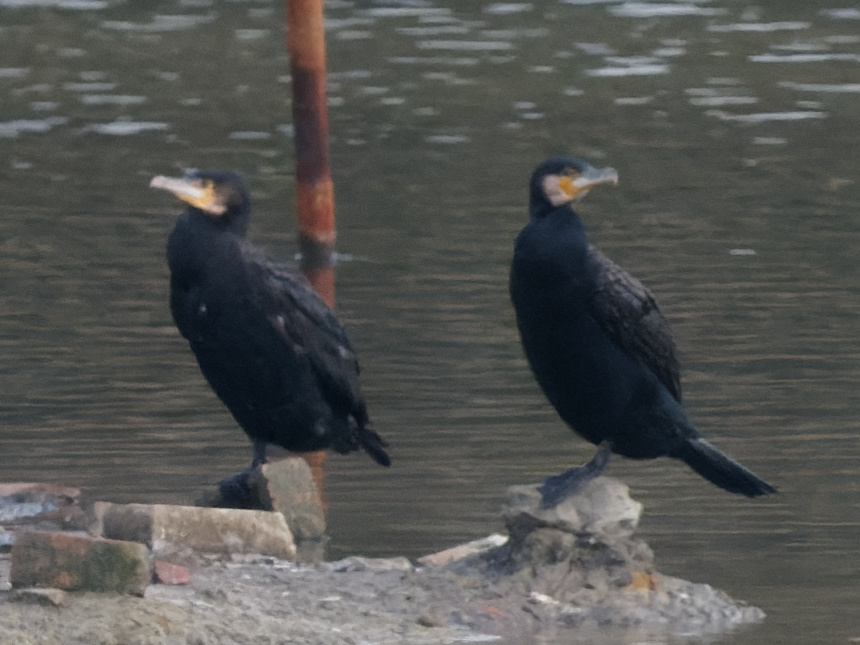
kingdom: Animalia
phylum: Chordata
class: Aves
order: Suliformes
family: Phalacrocoracidae
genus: Phalacrocorax
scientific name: Phalacrocorax carbo
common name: Great cormorant
